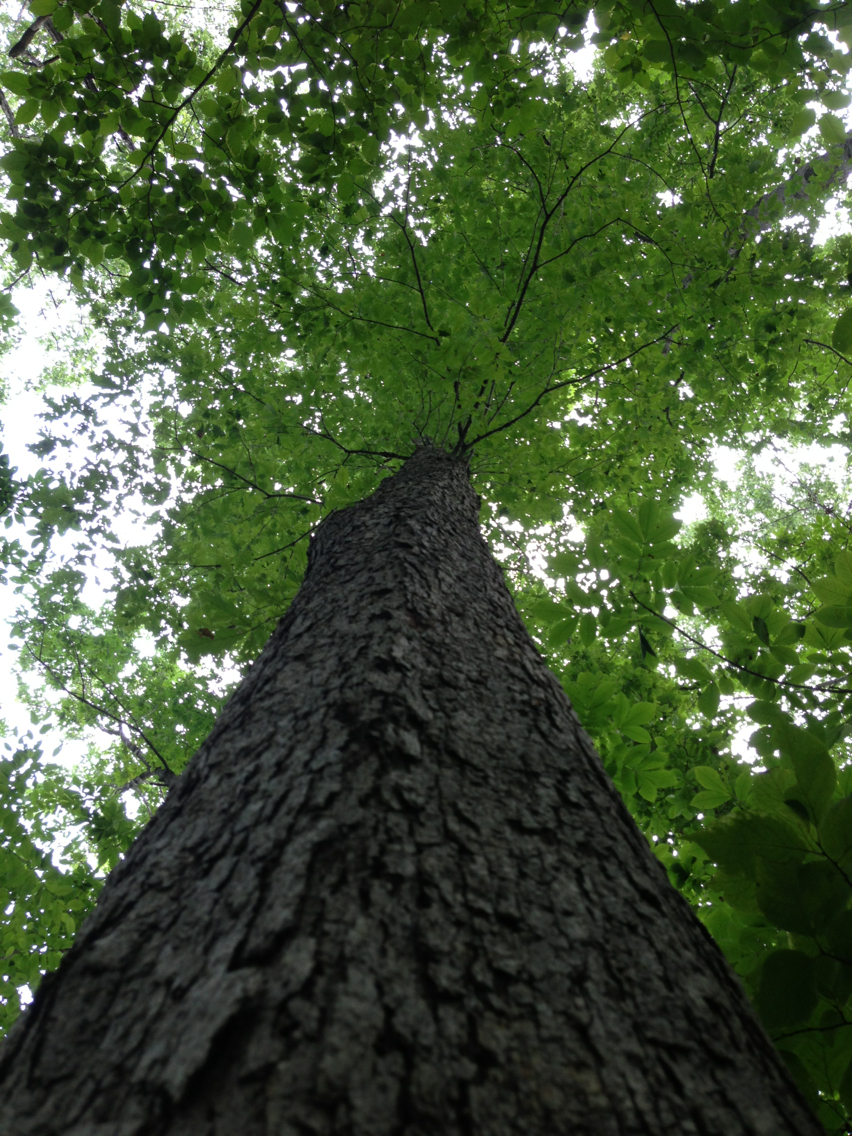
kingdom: Plantae
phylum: Tracheophyta
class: Magnoliopsida
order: Fagales
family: Fagaceae
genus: Quercus
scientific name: Quercus alba
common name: White oak
